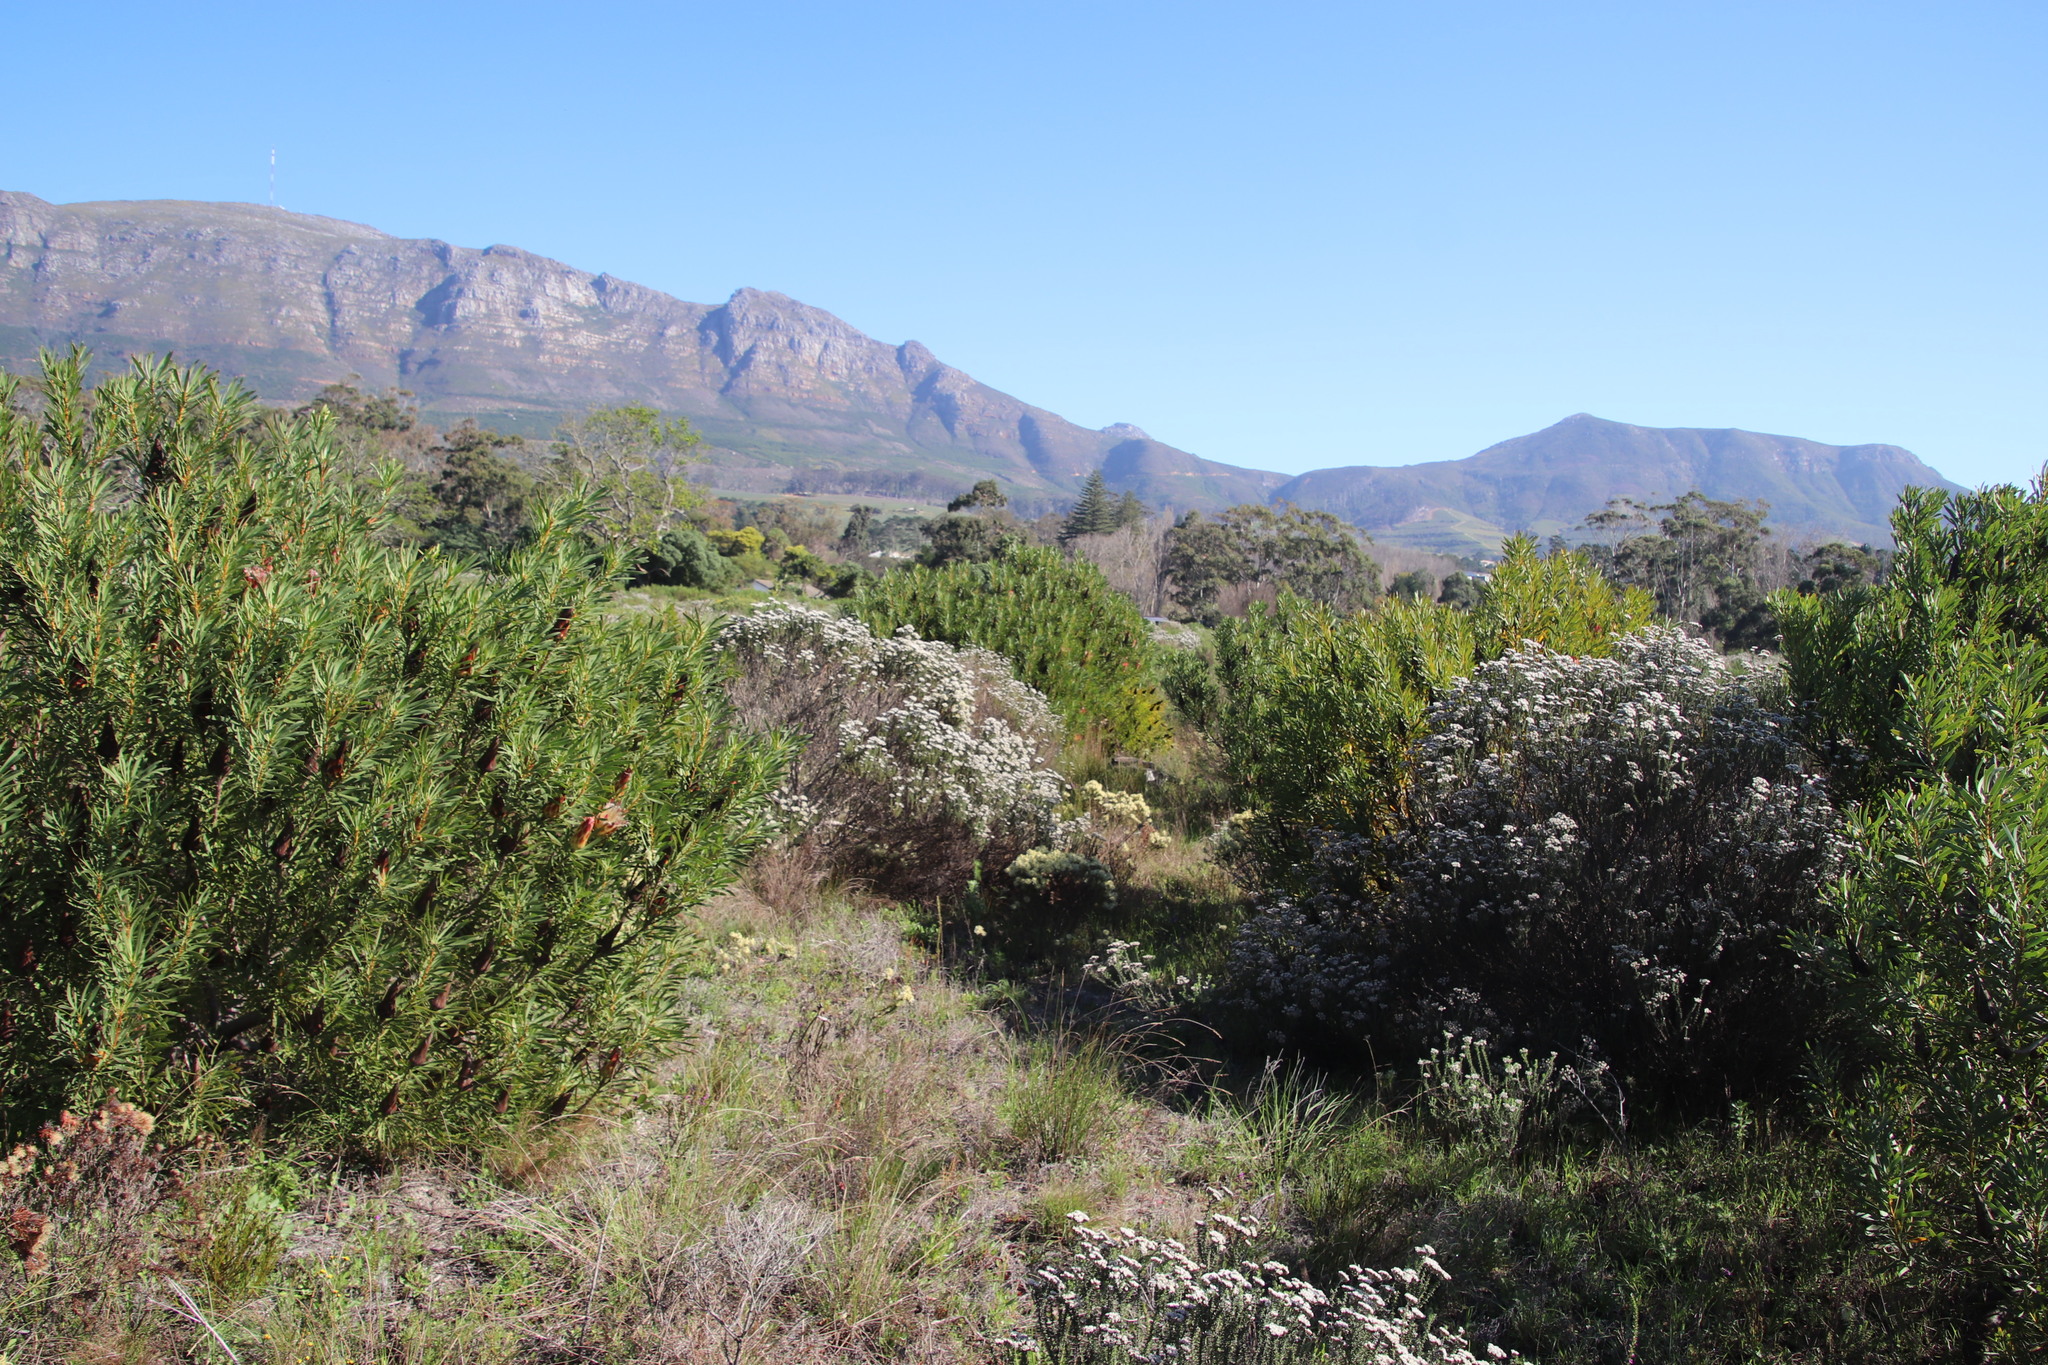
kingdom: Plantae
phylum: Tracheophyta
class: Magnoliopsida
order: Proteales
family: Proteaceae
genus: Protea
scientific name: Protea repens
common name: Sugarbush
